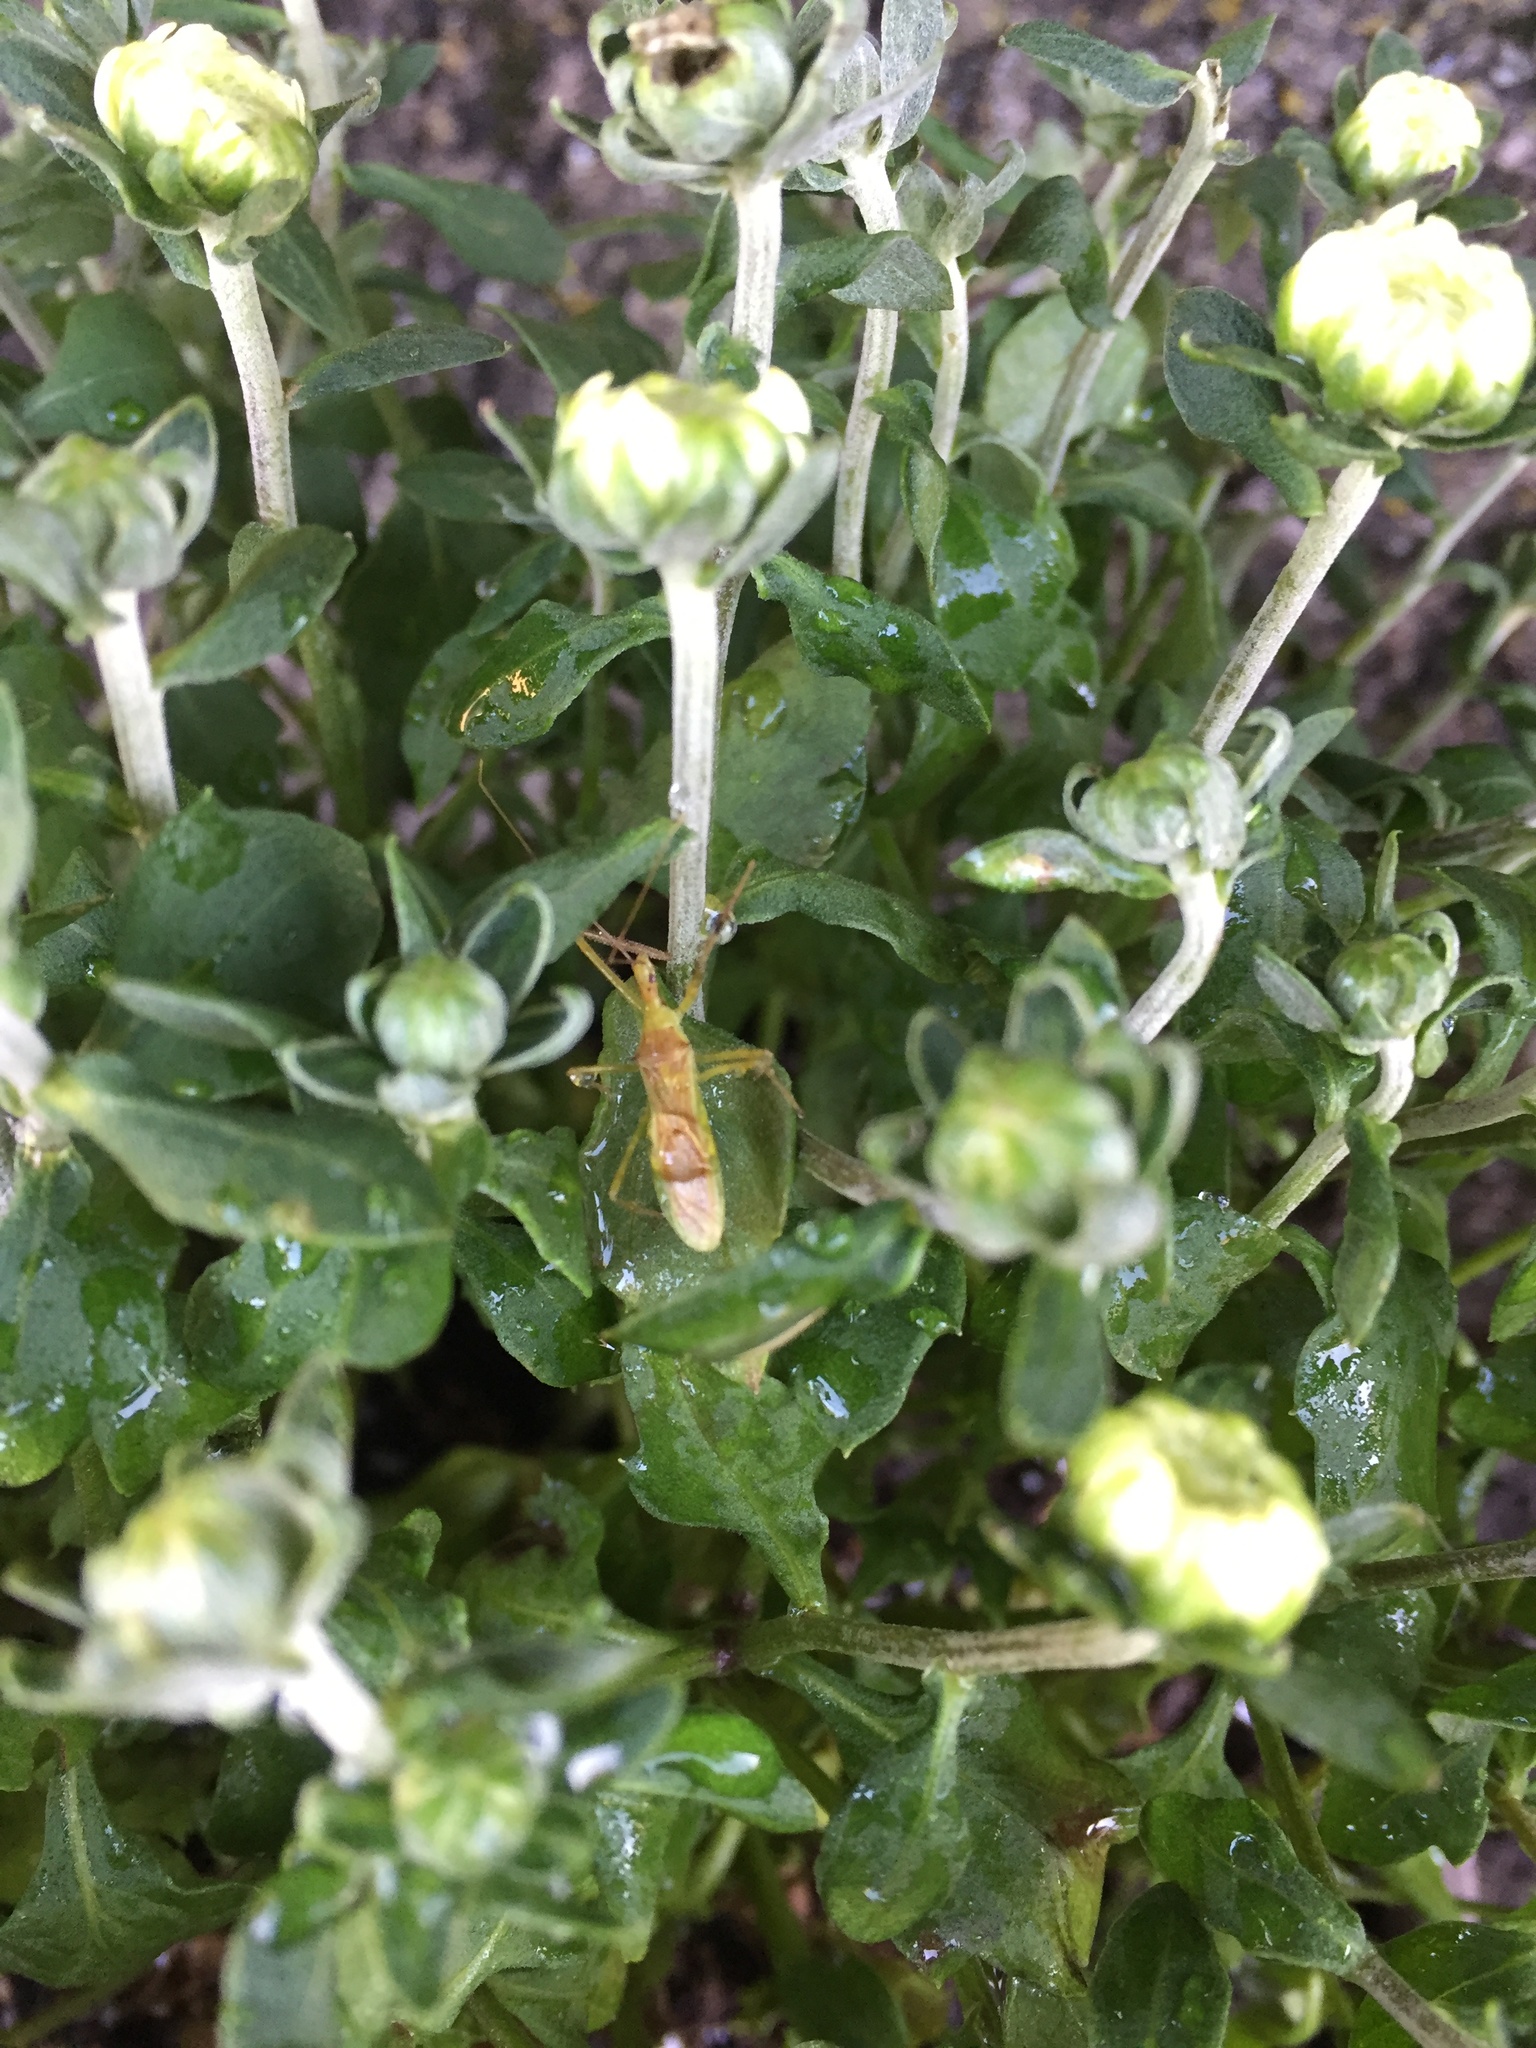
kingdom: Animalia
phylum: Arthropoda
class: Insecta
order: Hemiptera
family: Reduviidae
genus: Zelus
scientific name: Zelus luridus
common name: Pale green assassin bug
